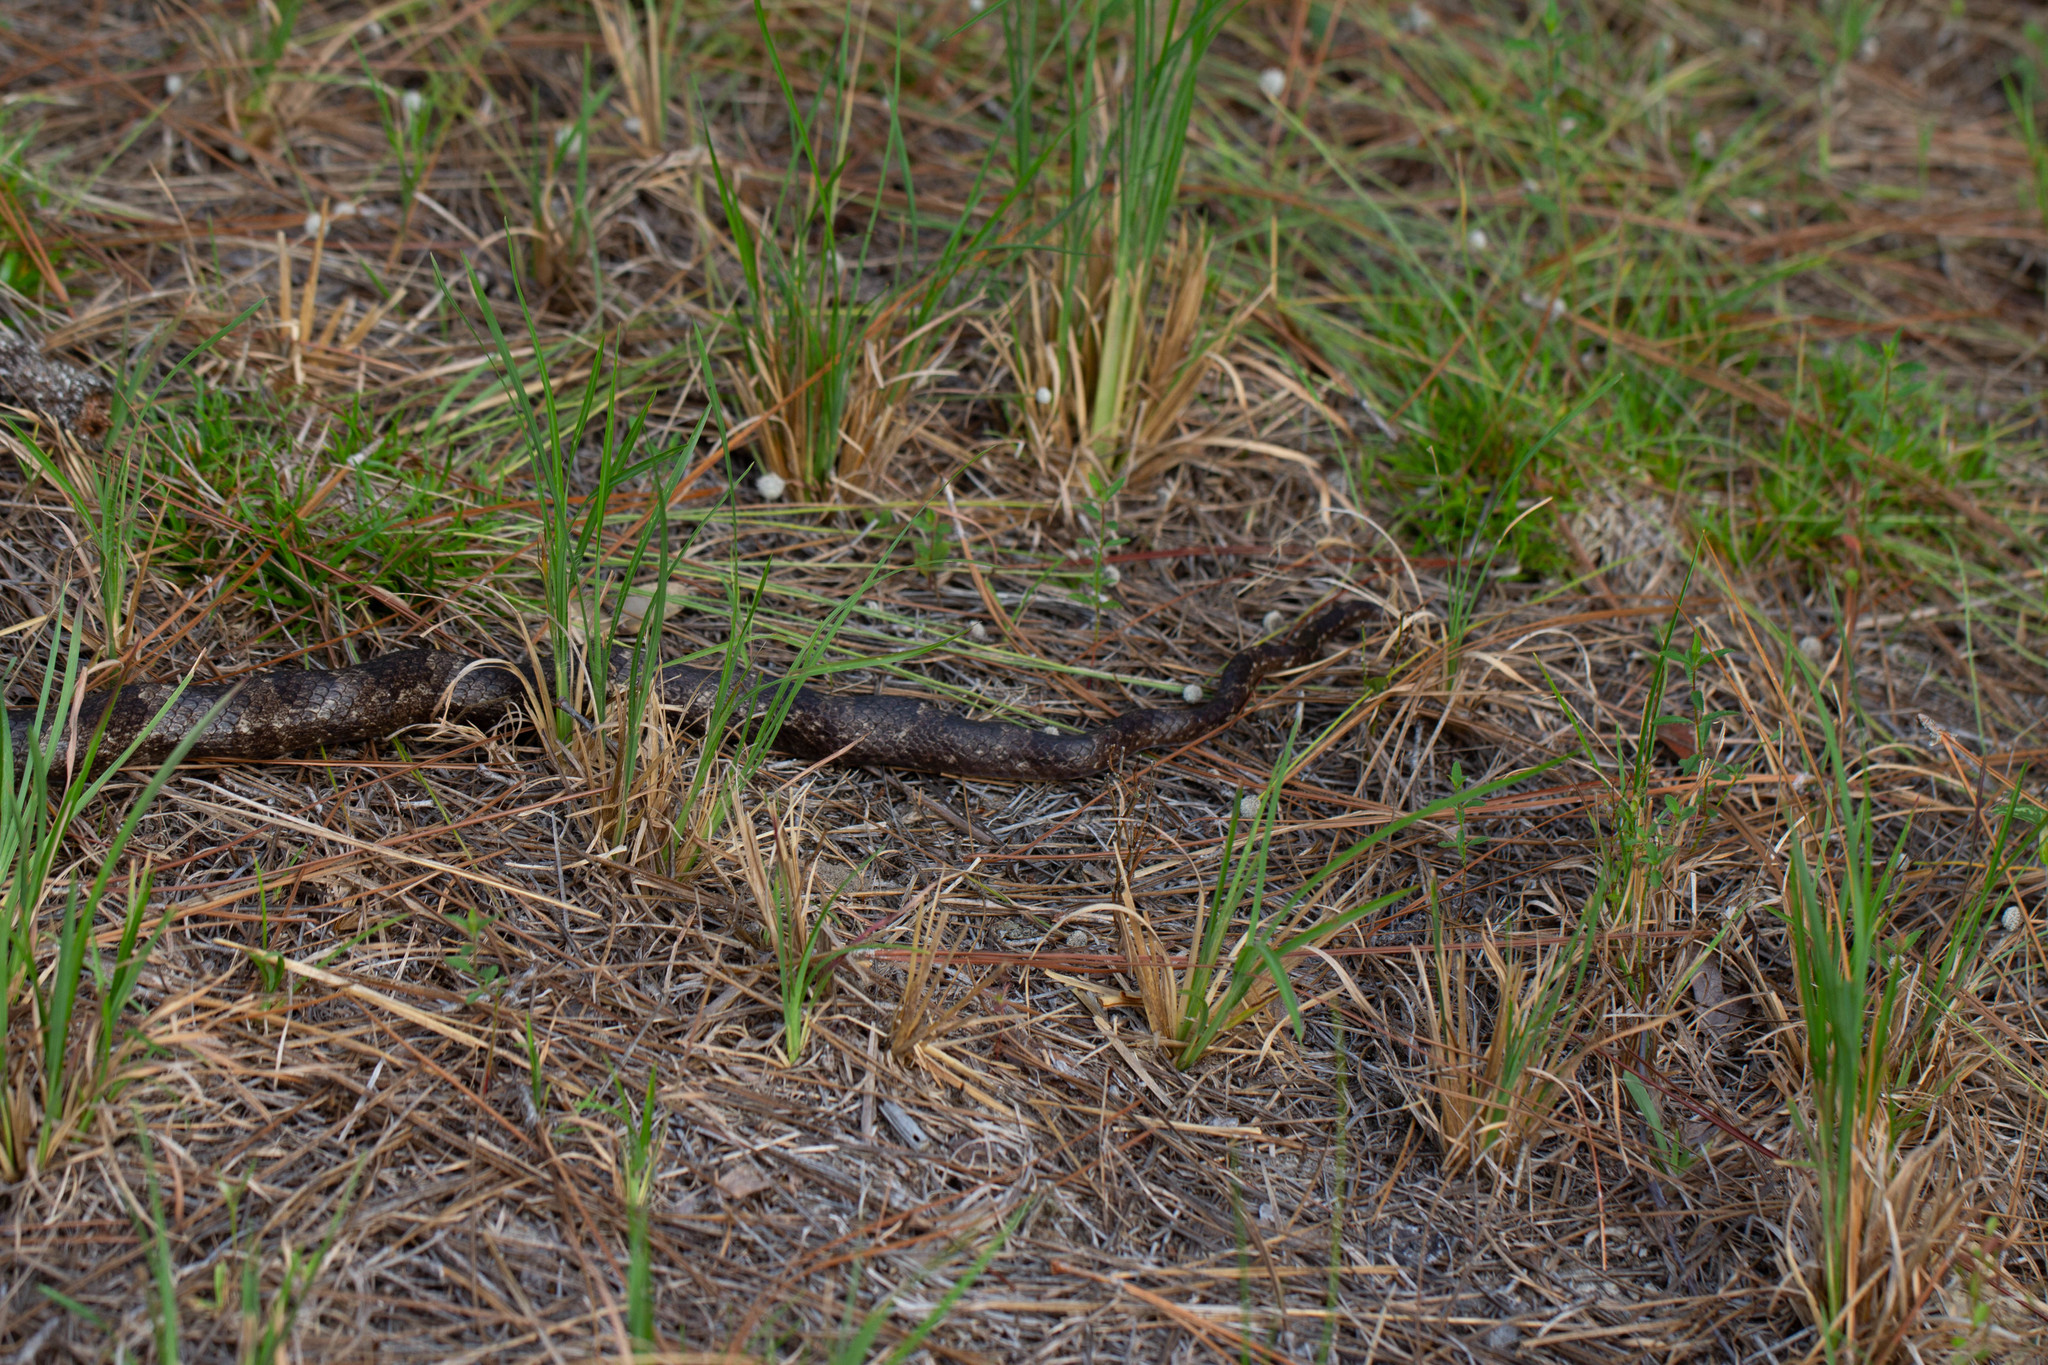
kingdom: Animalia
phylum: Chordata
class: Squamata
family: Colubridae
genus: Pantherophis
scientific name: Pantherophis spiloides
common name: Gray rat snake
